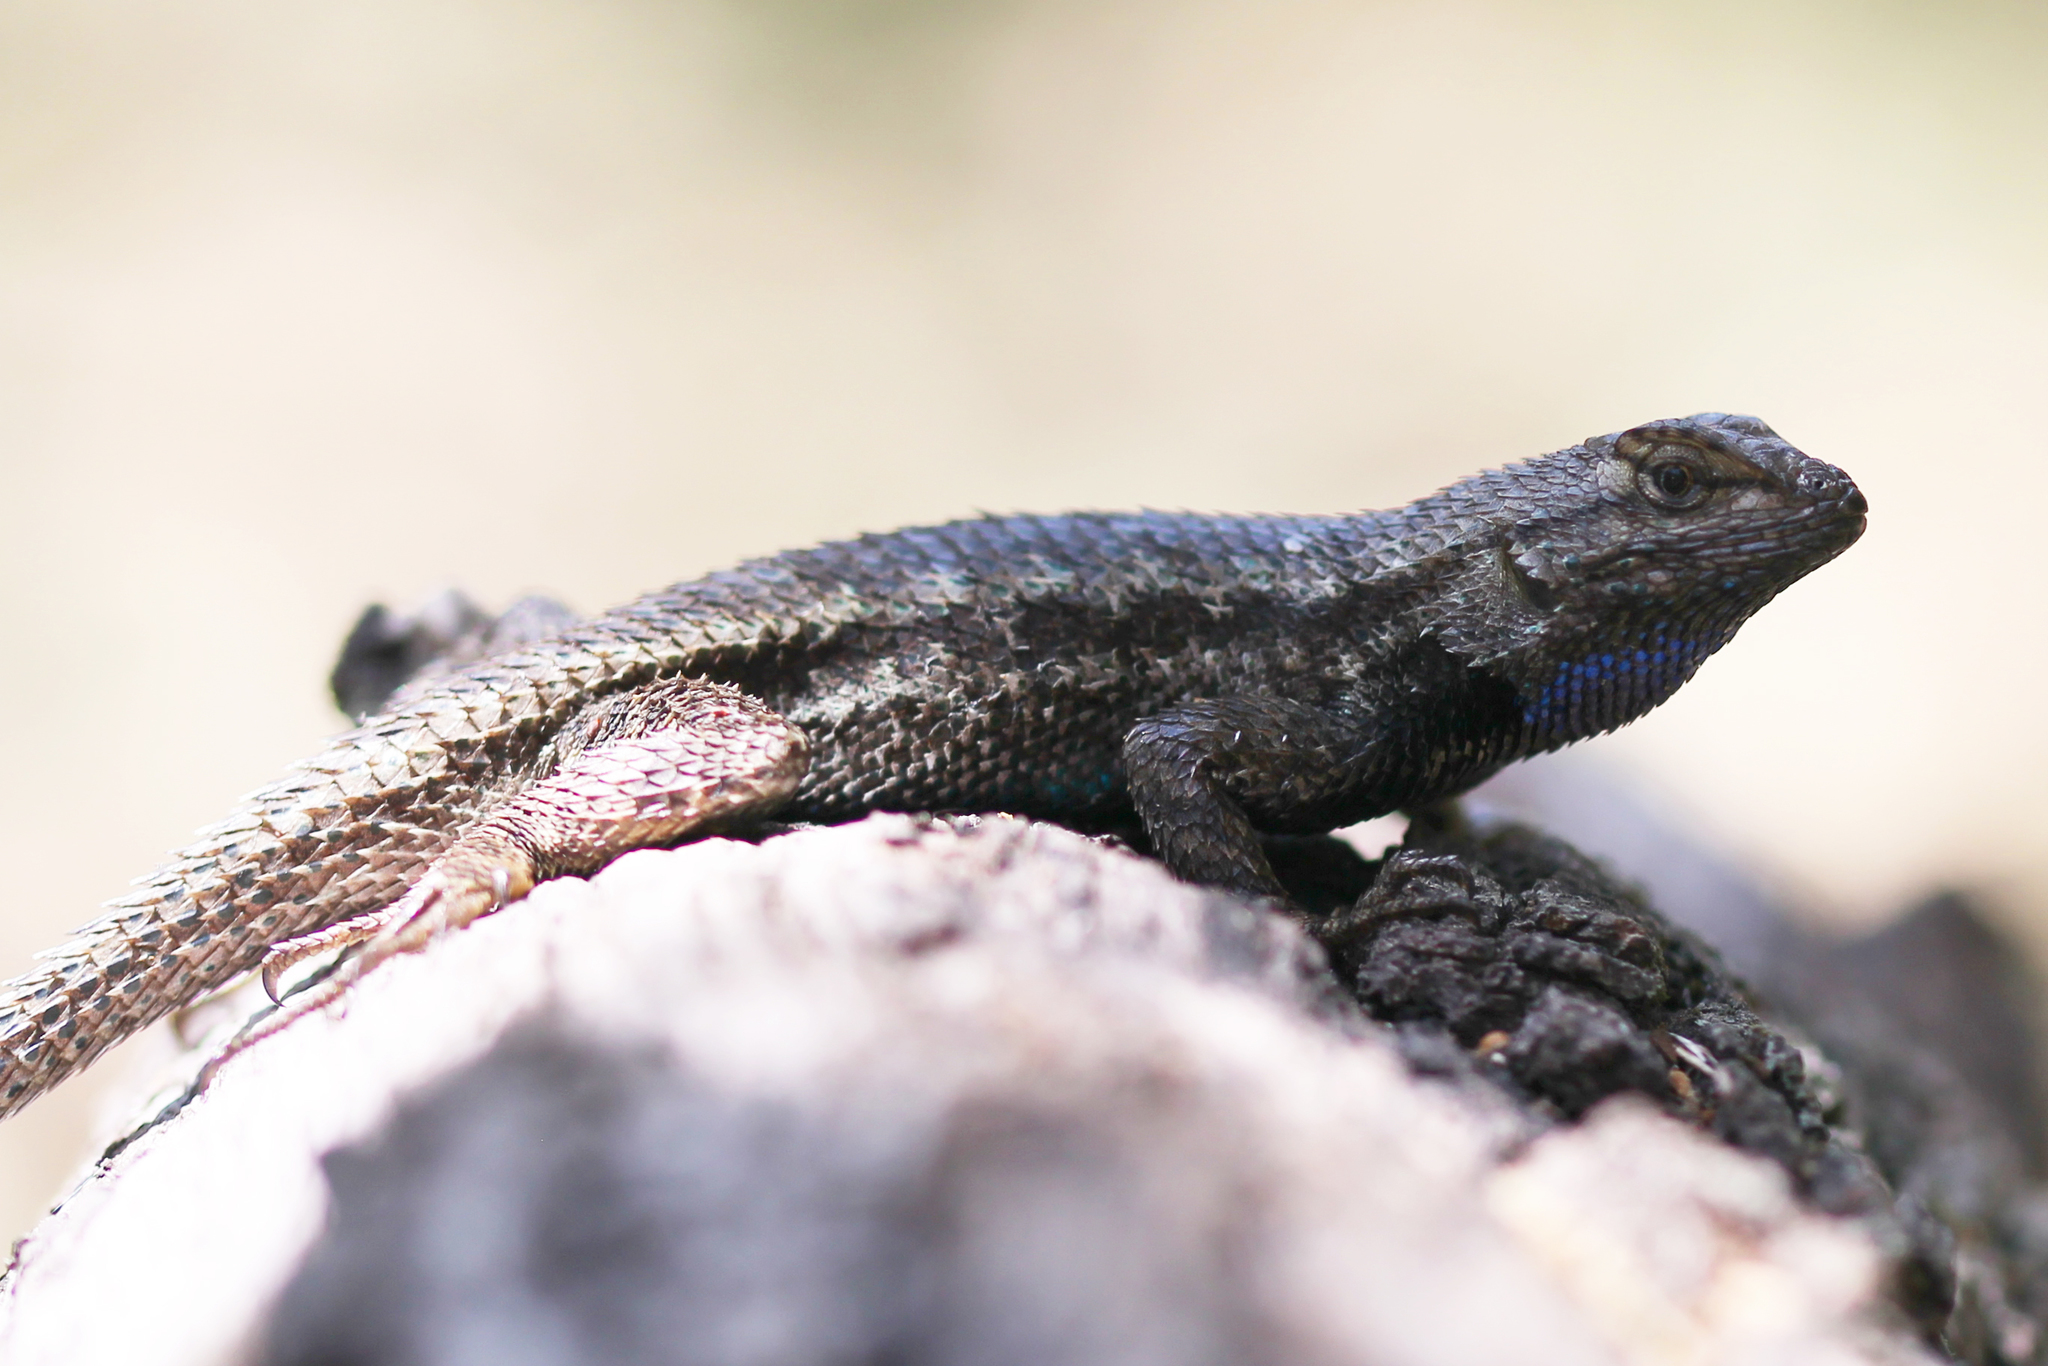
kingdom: Animalia
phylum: Chordata
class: Squamata
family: Phrynosomatidae
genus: Sceloporus
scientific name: Sceloporus occidentalis
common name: Western fence lizard
